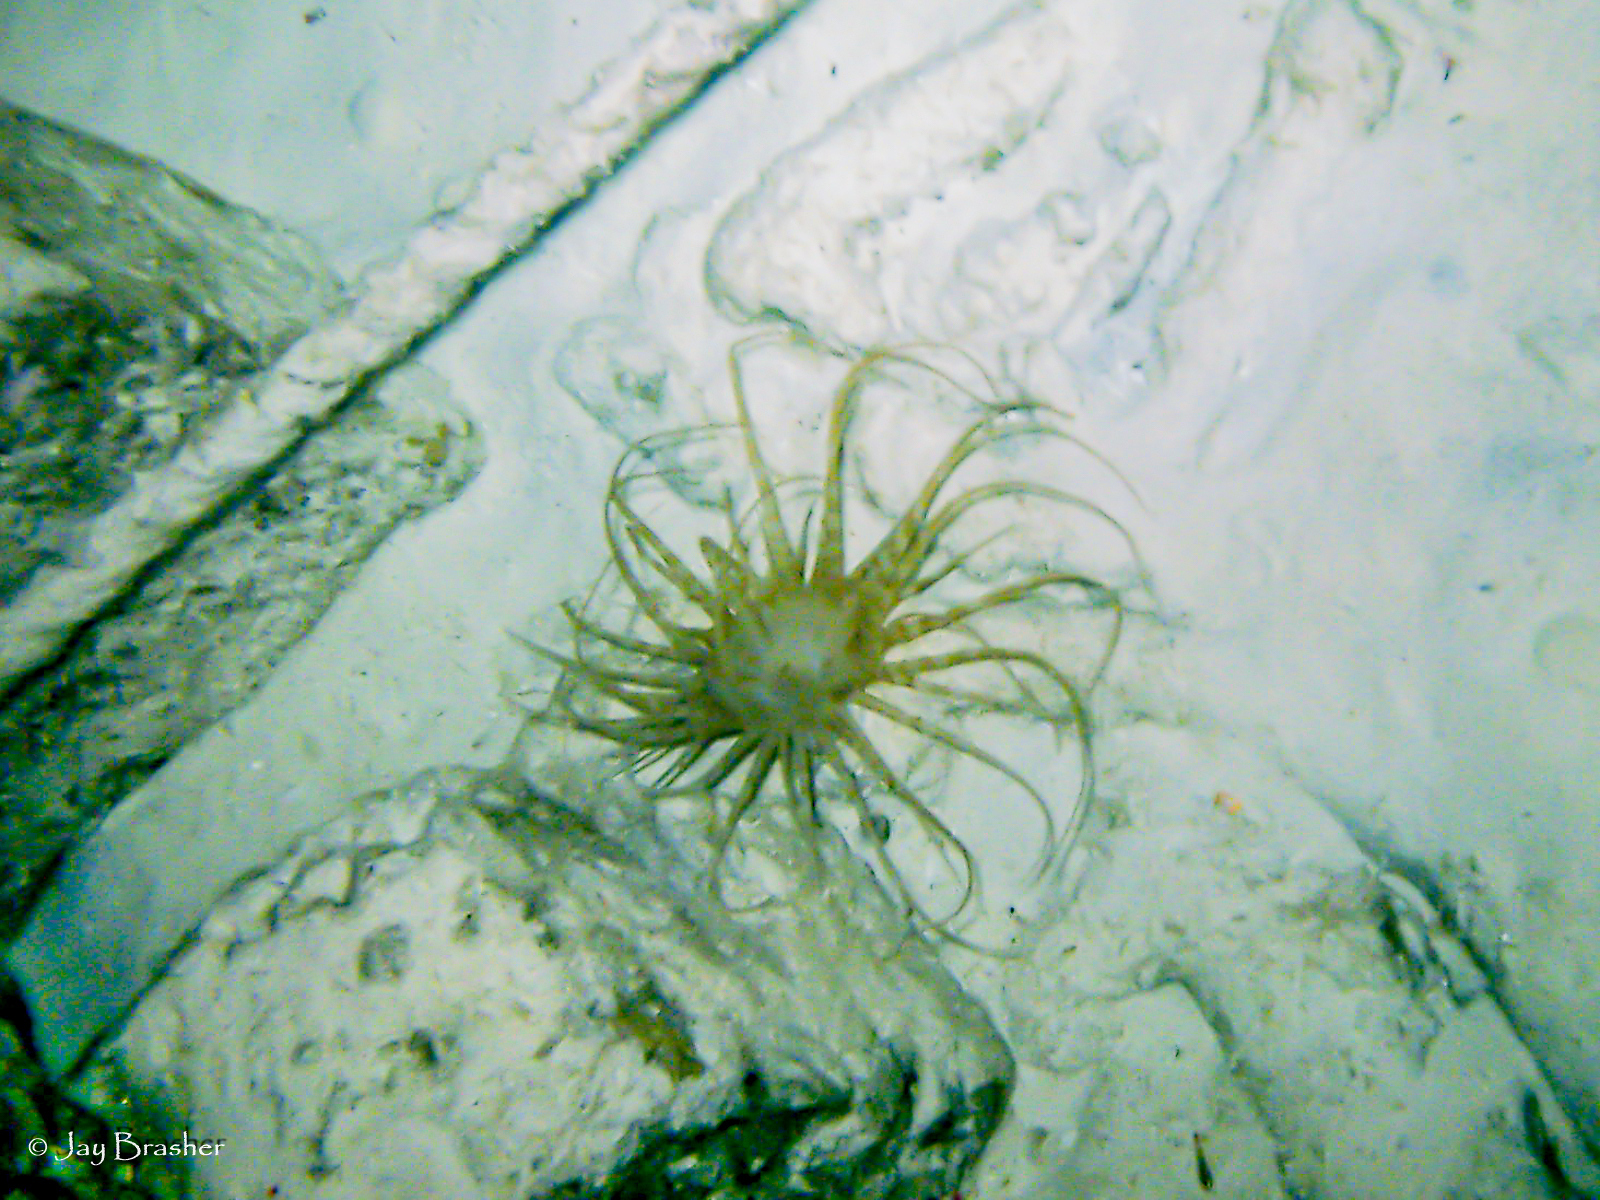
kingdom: Animalia
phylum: Cnidaria
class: Anthozoa
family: Arachnactidae
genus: Isarachnanthus
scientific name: Isarachnanthus nocturnus
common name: Banded tube-dwelling anemone
